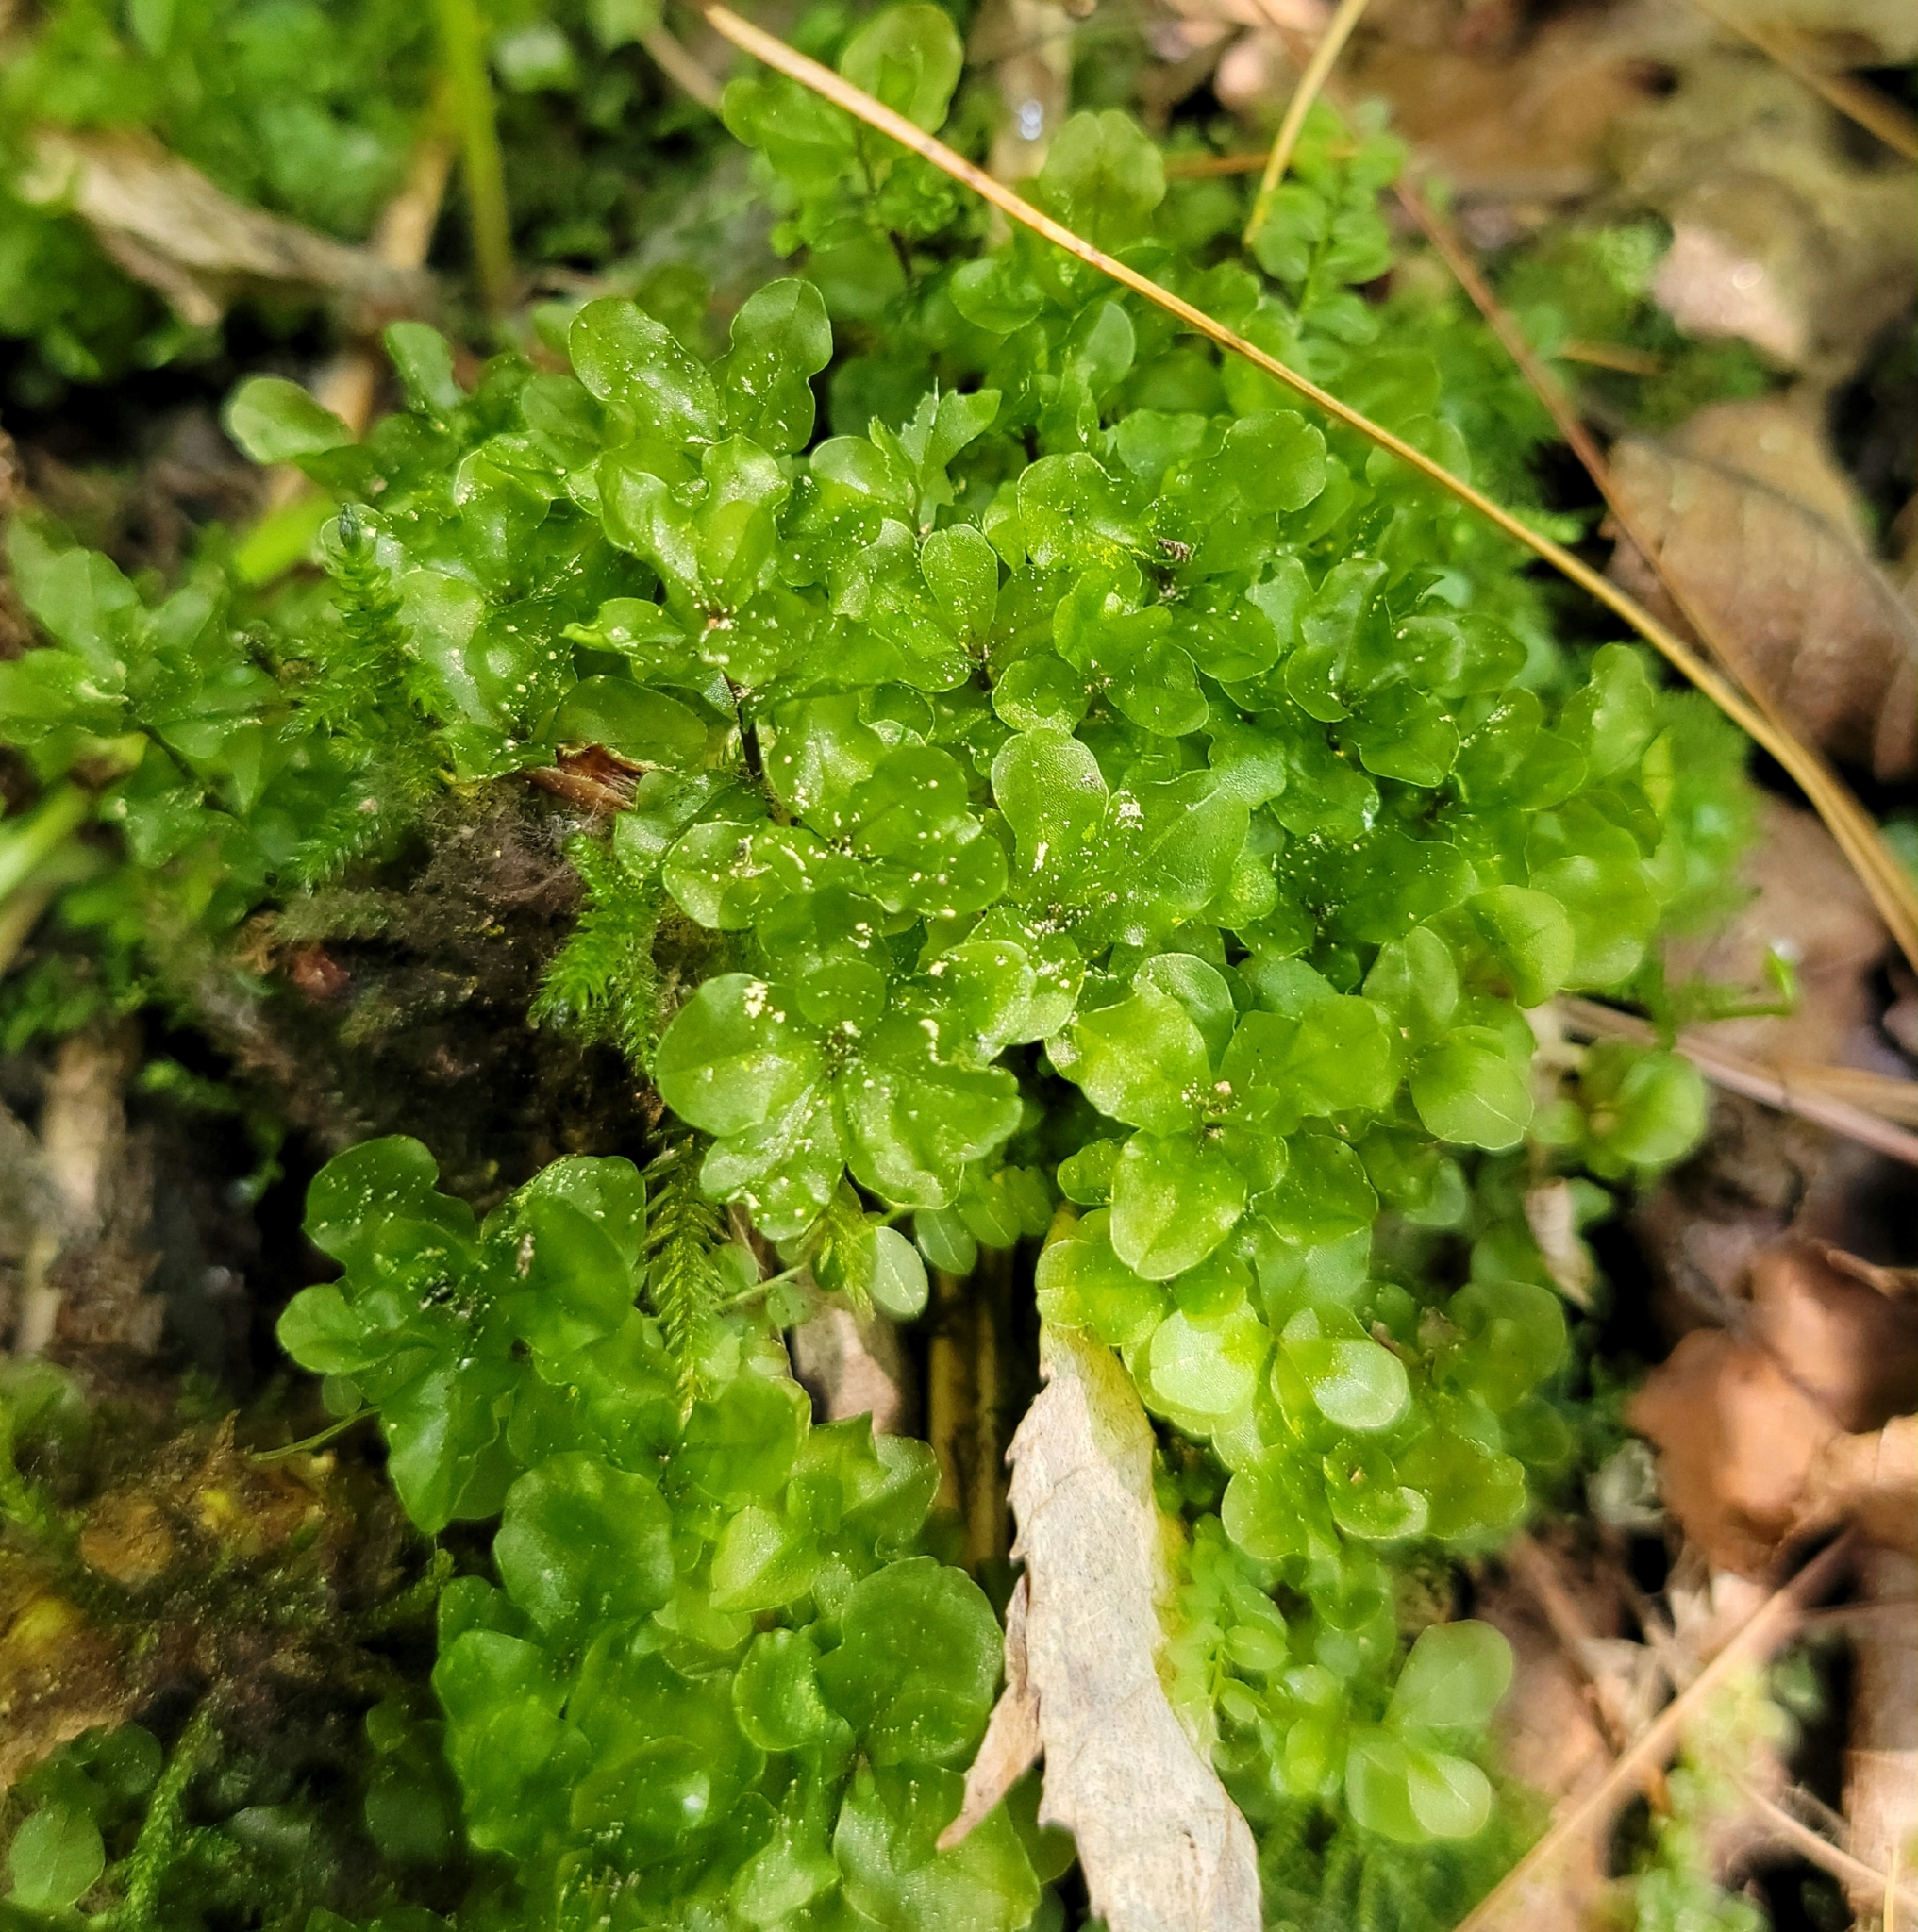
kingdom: Plantae
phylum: Bryophyta
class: Bryopsida
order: Bryales
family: Mniaceae
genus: Rhizomnium
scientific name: Rhizomnium punctatum
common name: Dotted leafy moss
